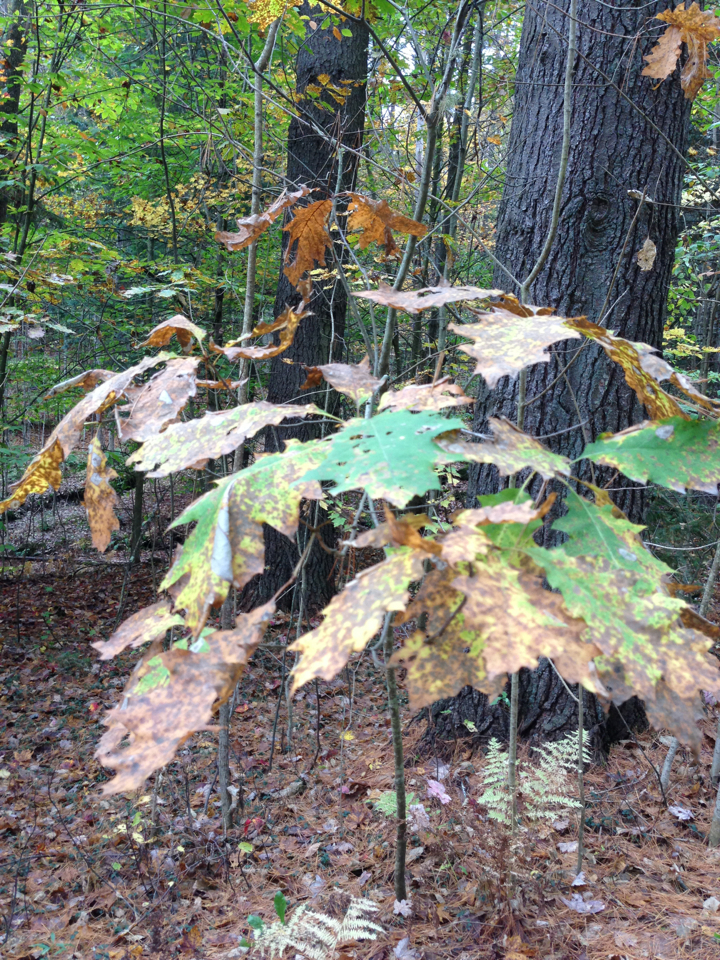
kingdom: Plantae
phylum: Tracheophyta
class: Magnoliopsida
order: Fagales
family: Fagaceae
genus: Quercus
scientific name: Quercus rubra
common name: Red oak
